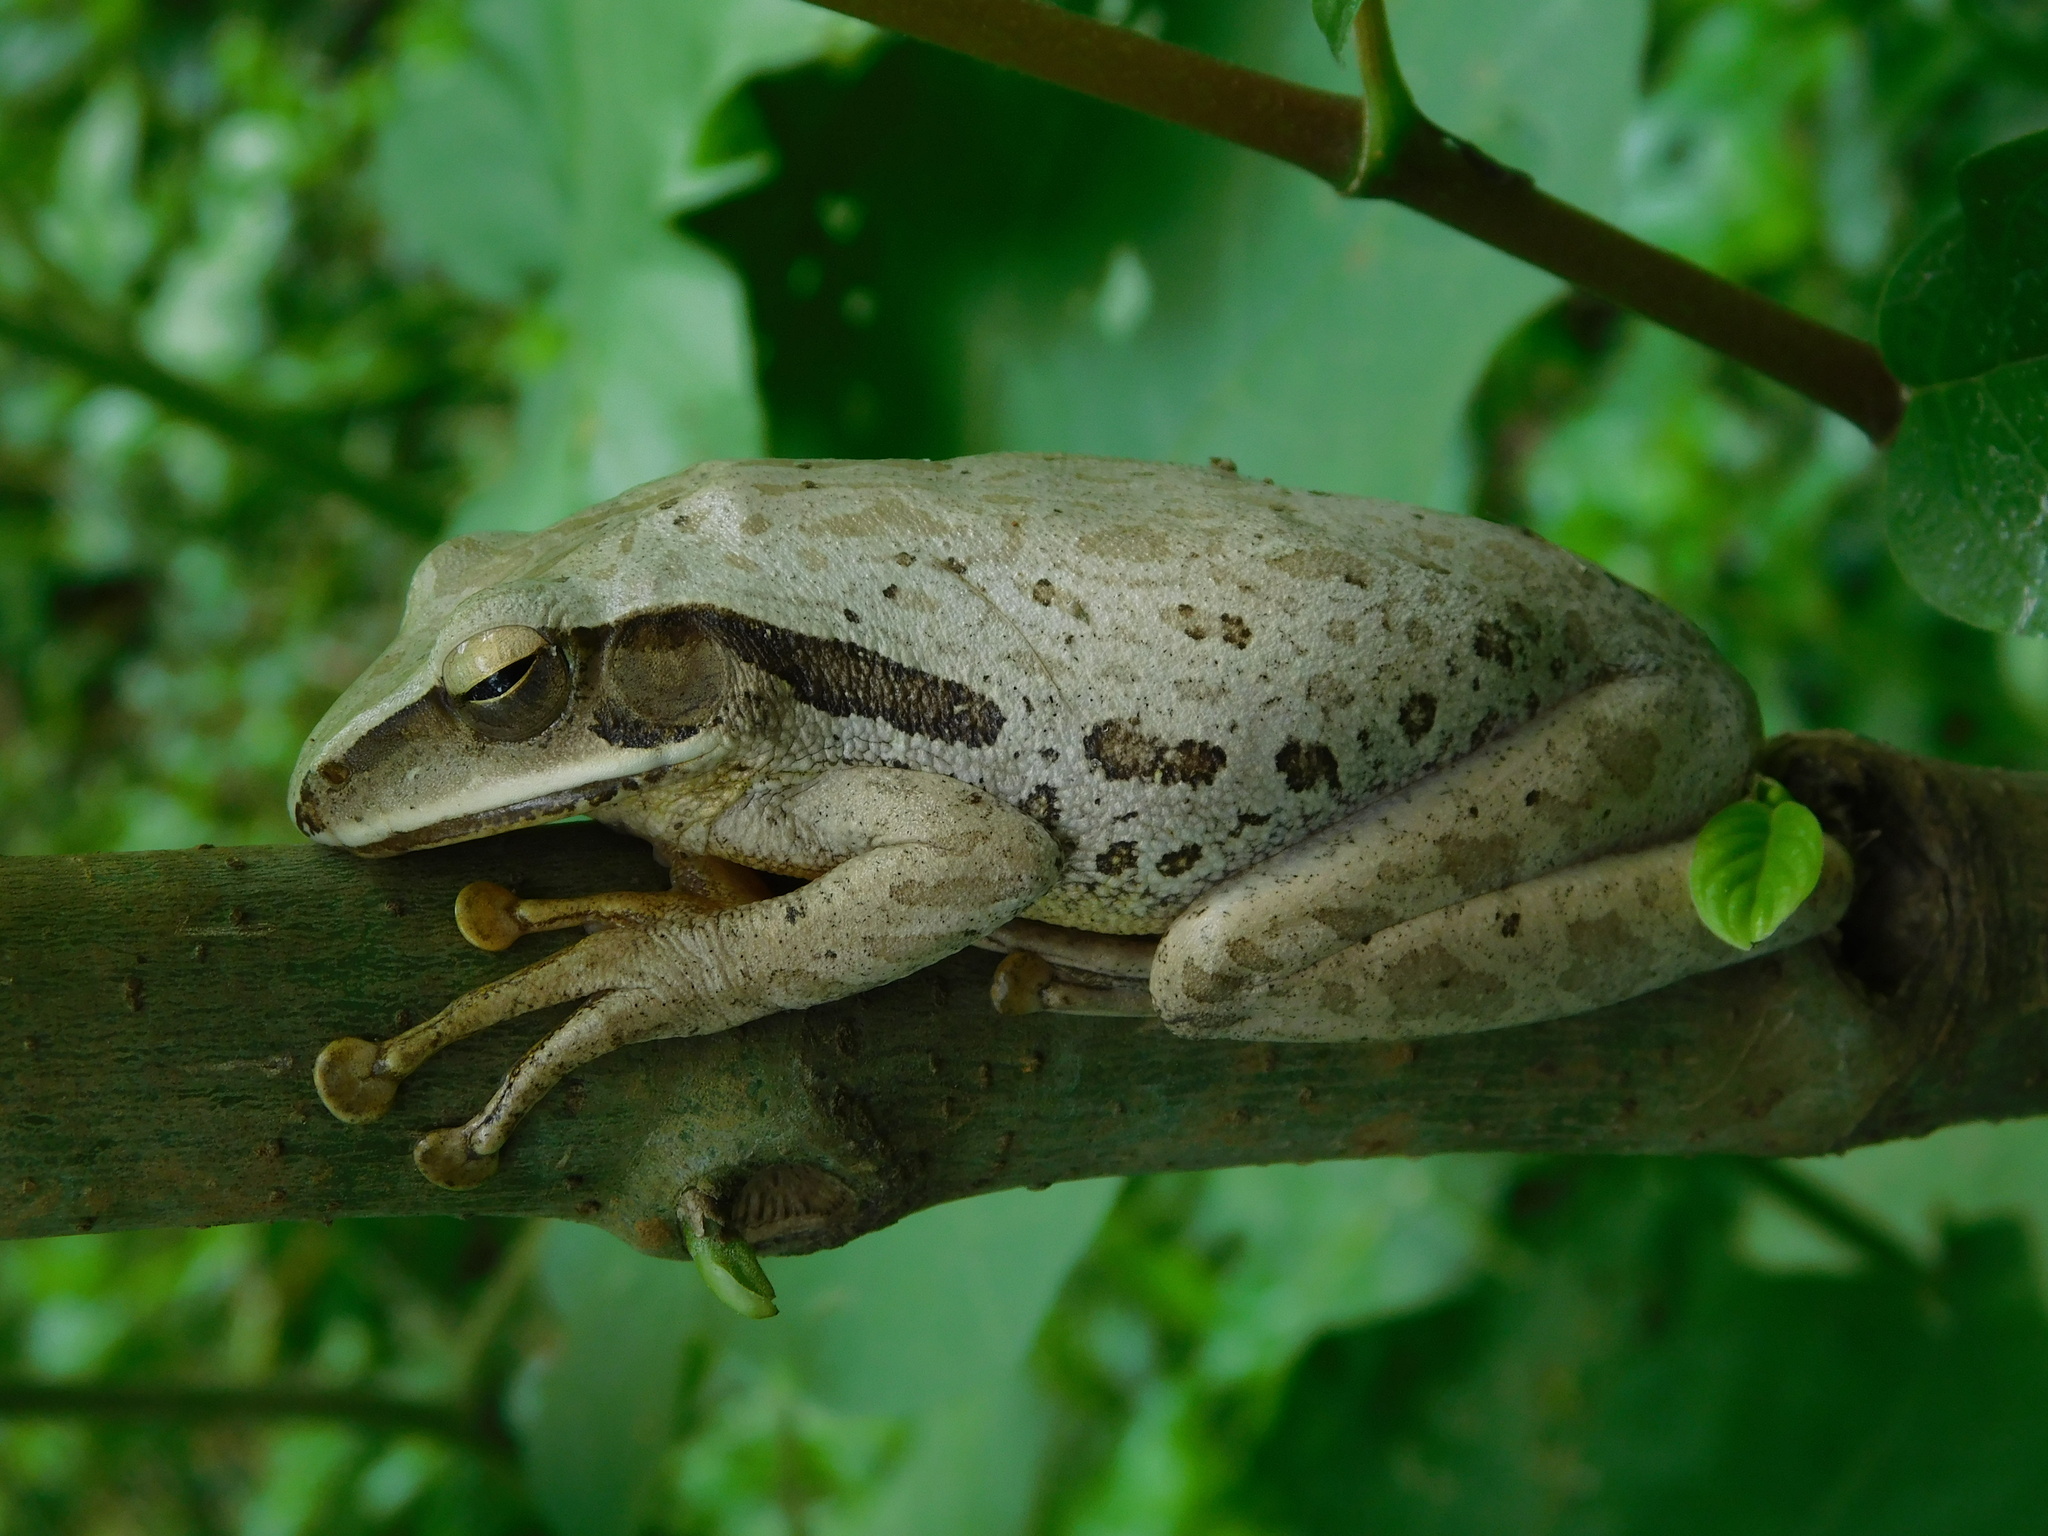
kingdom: Animalia
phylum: Chordata
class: Amphibia
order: Anura
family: Rhacophoridae
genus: Polypedates
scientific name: Polypedates leucomystax
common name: Common tree frog/four-lined tree frog
